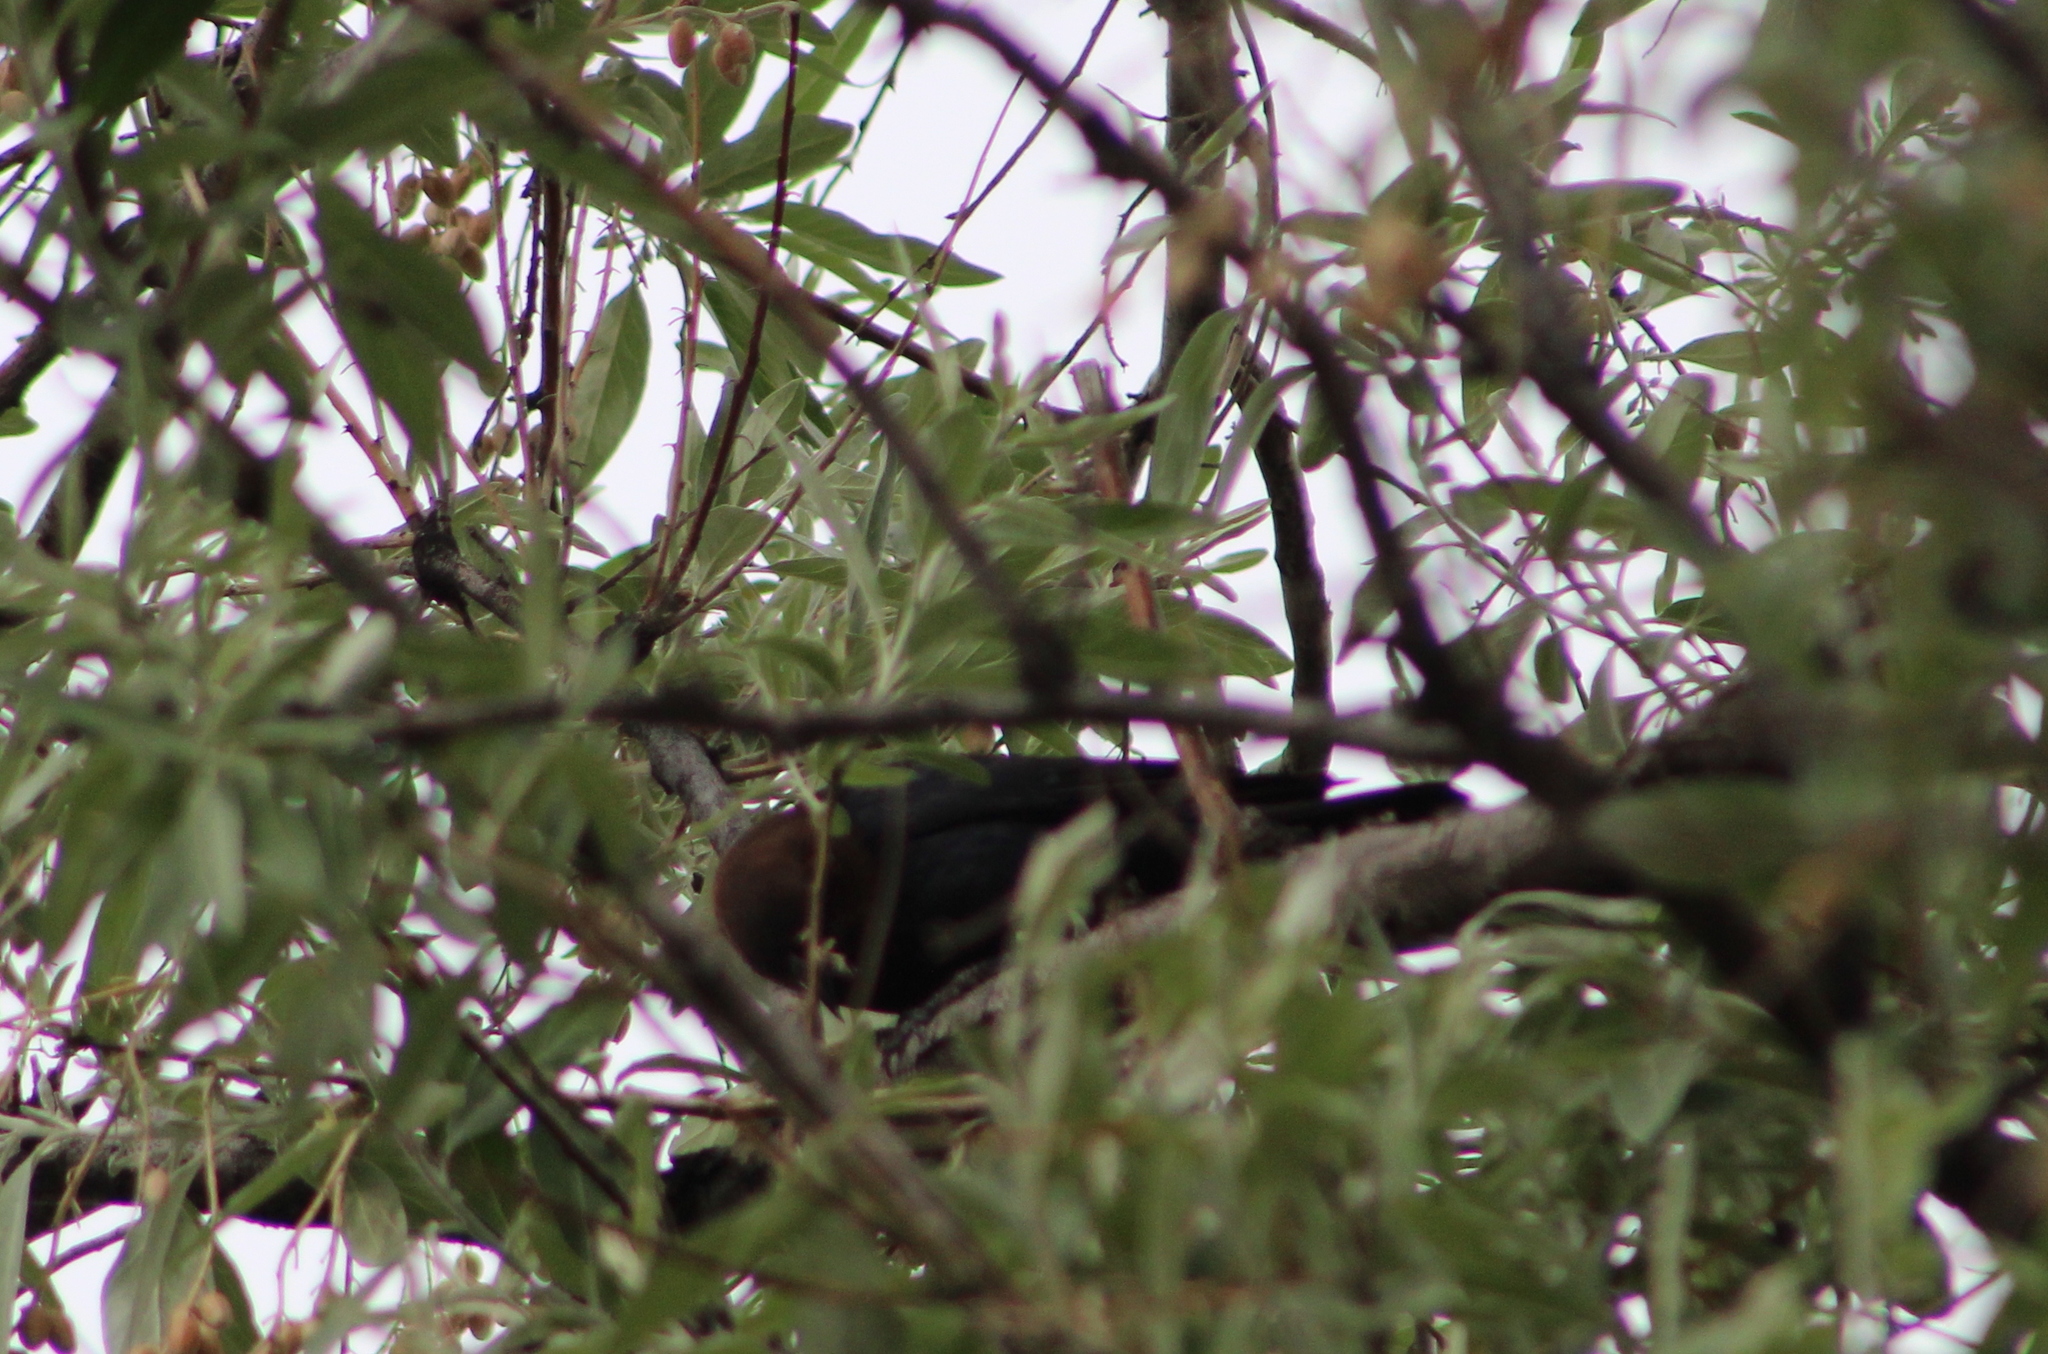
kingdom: Animalia
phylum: Chordata
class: Aves
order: Passeriformes
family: Icteridae
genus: Molothrus
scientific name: Molothrus ater
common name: Brown-headed cowbird
